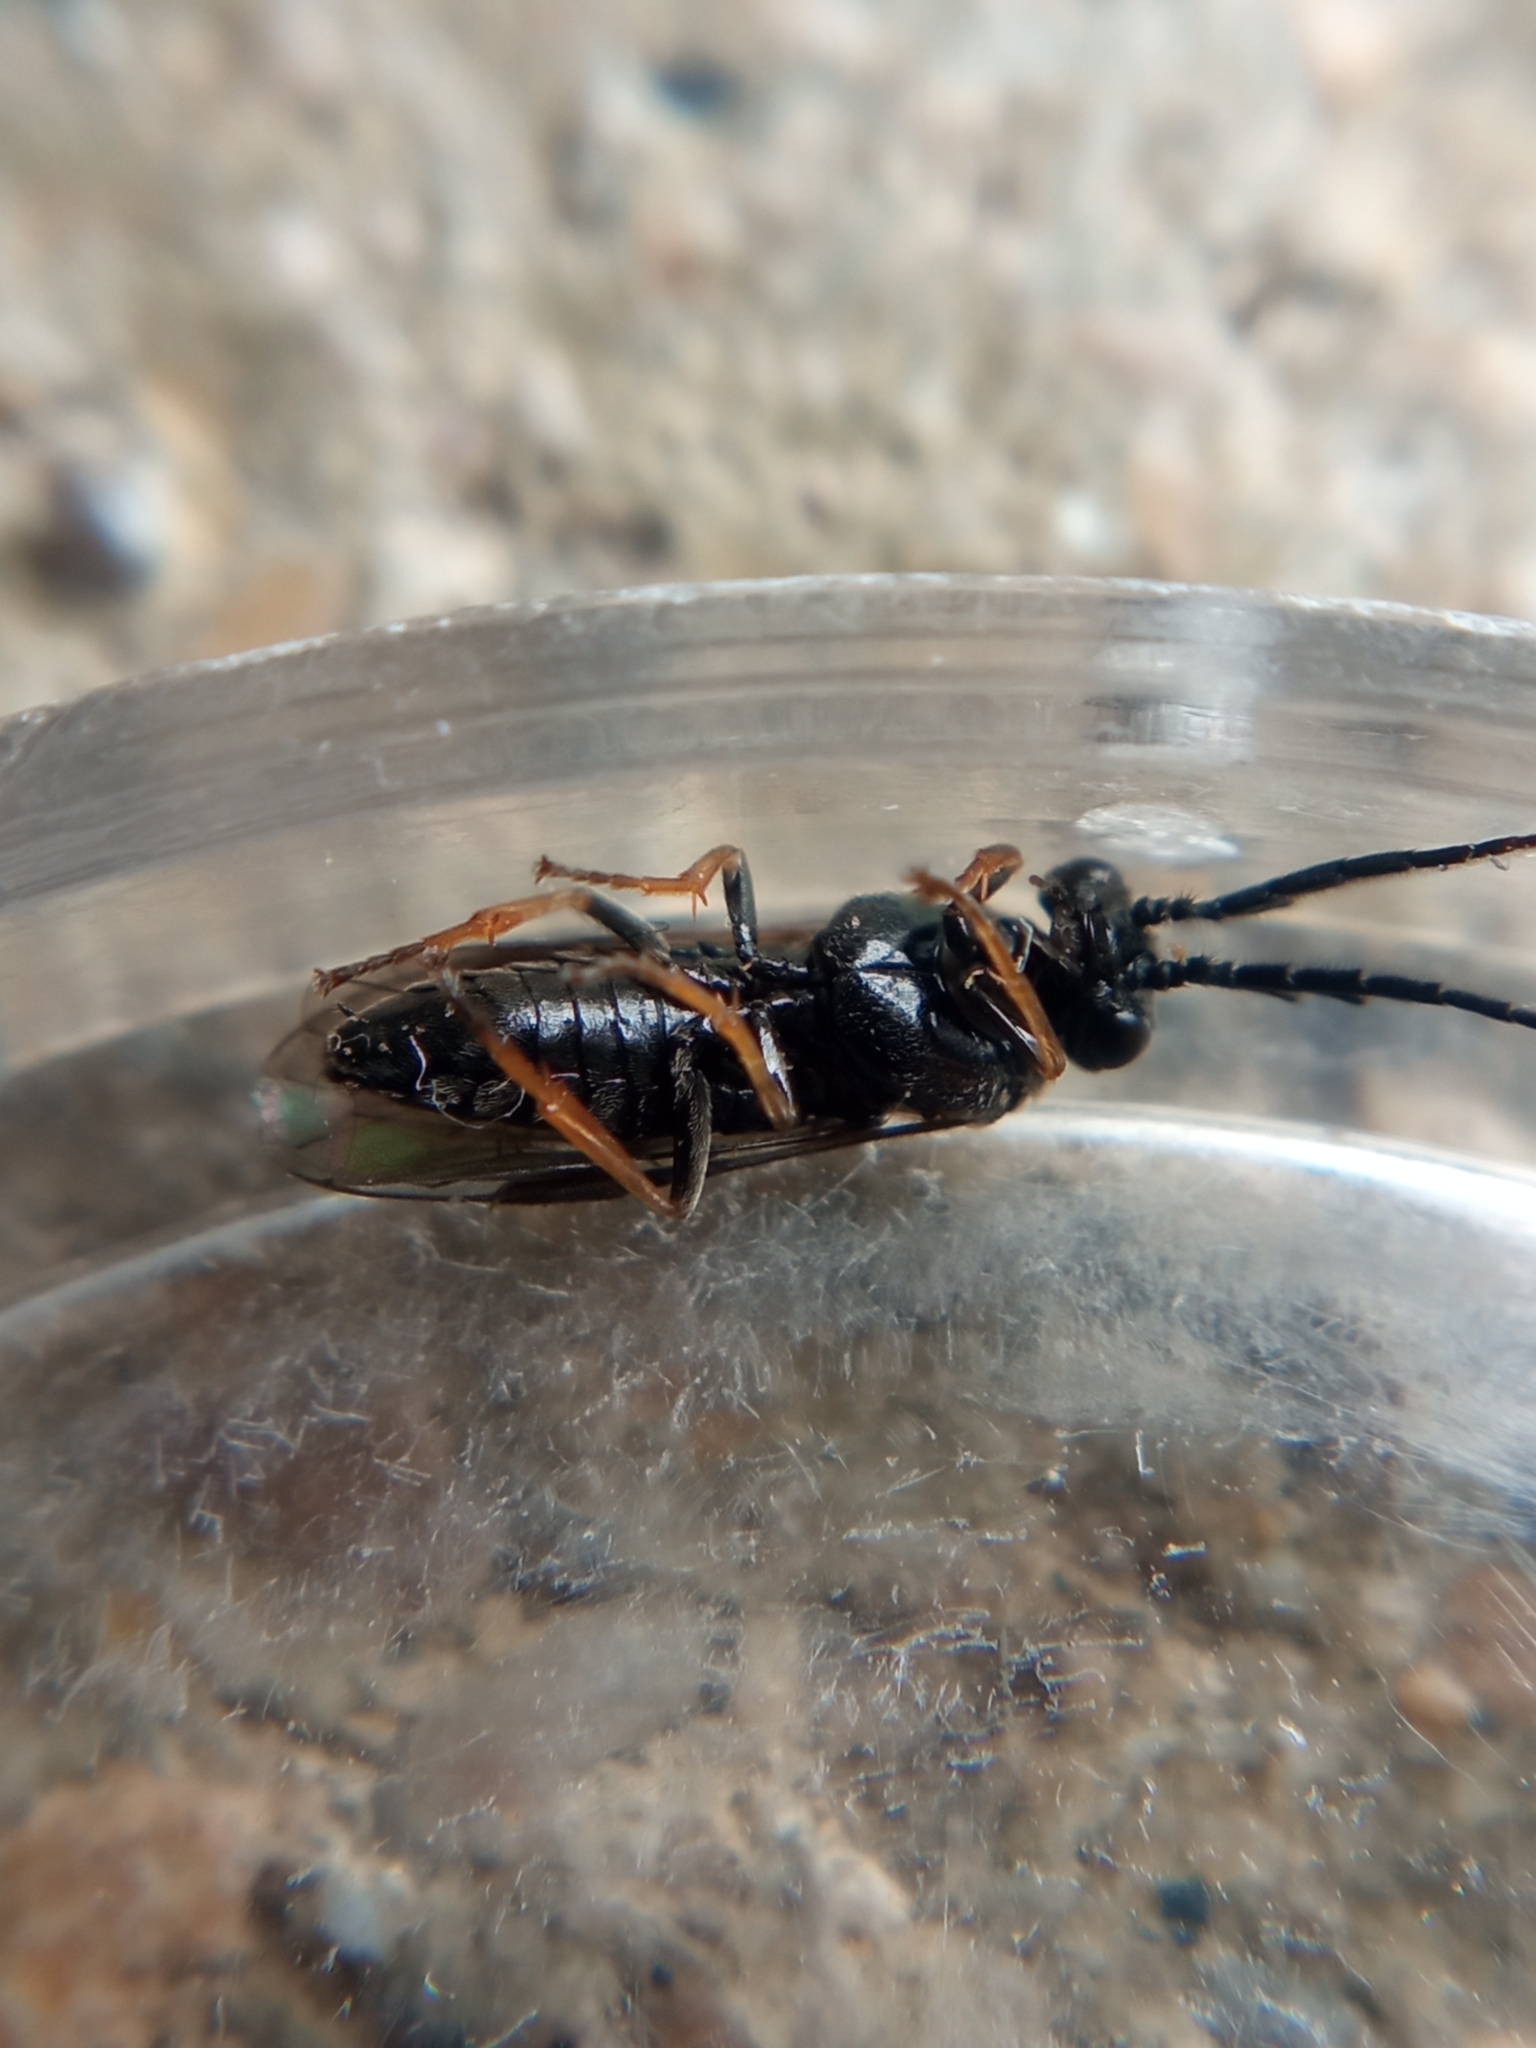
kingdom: Animalia
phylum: Arthropoda
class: Insecta
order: Hymenoptera
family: Tenthredinidae
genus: Cladius
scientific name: Cladius pectinicornis
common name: Sawfly
